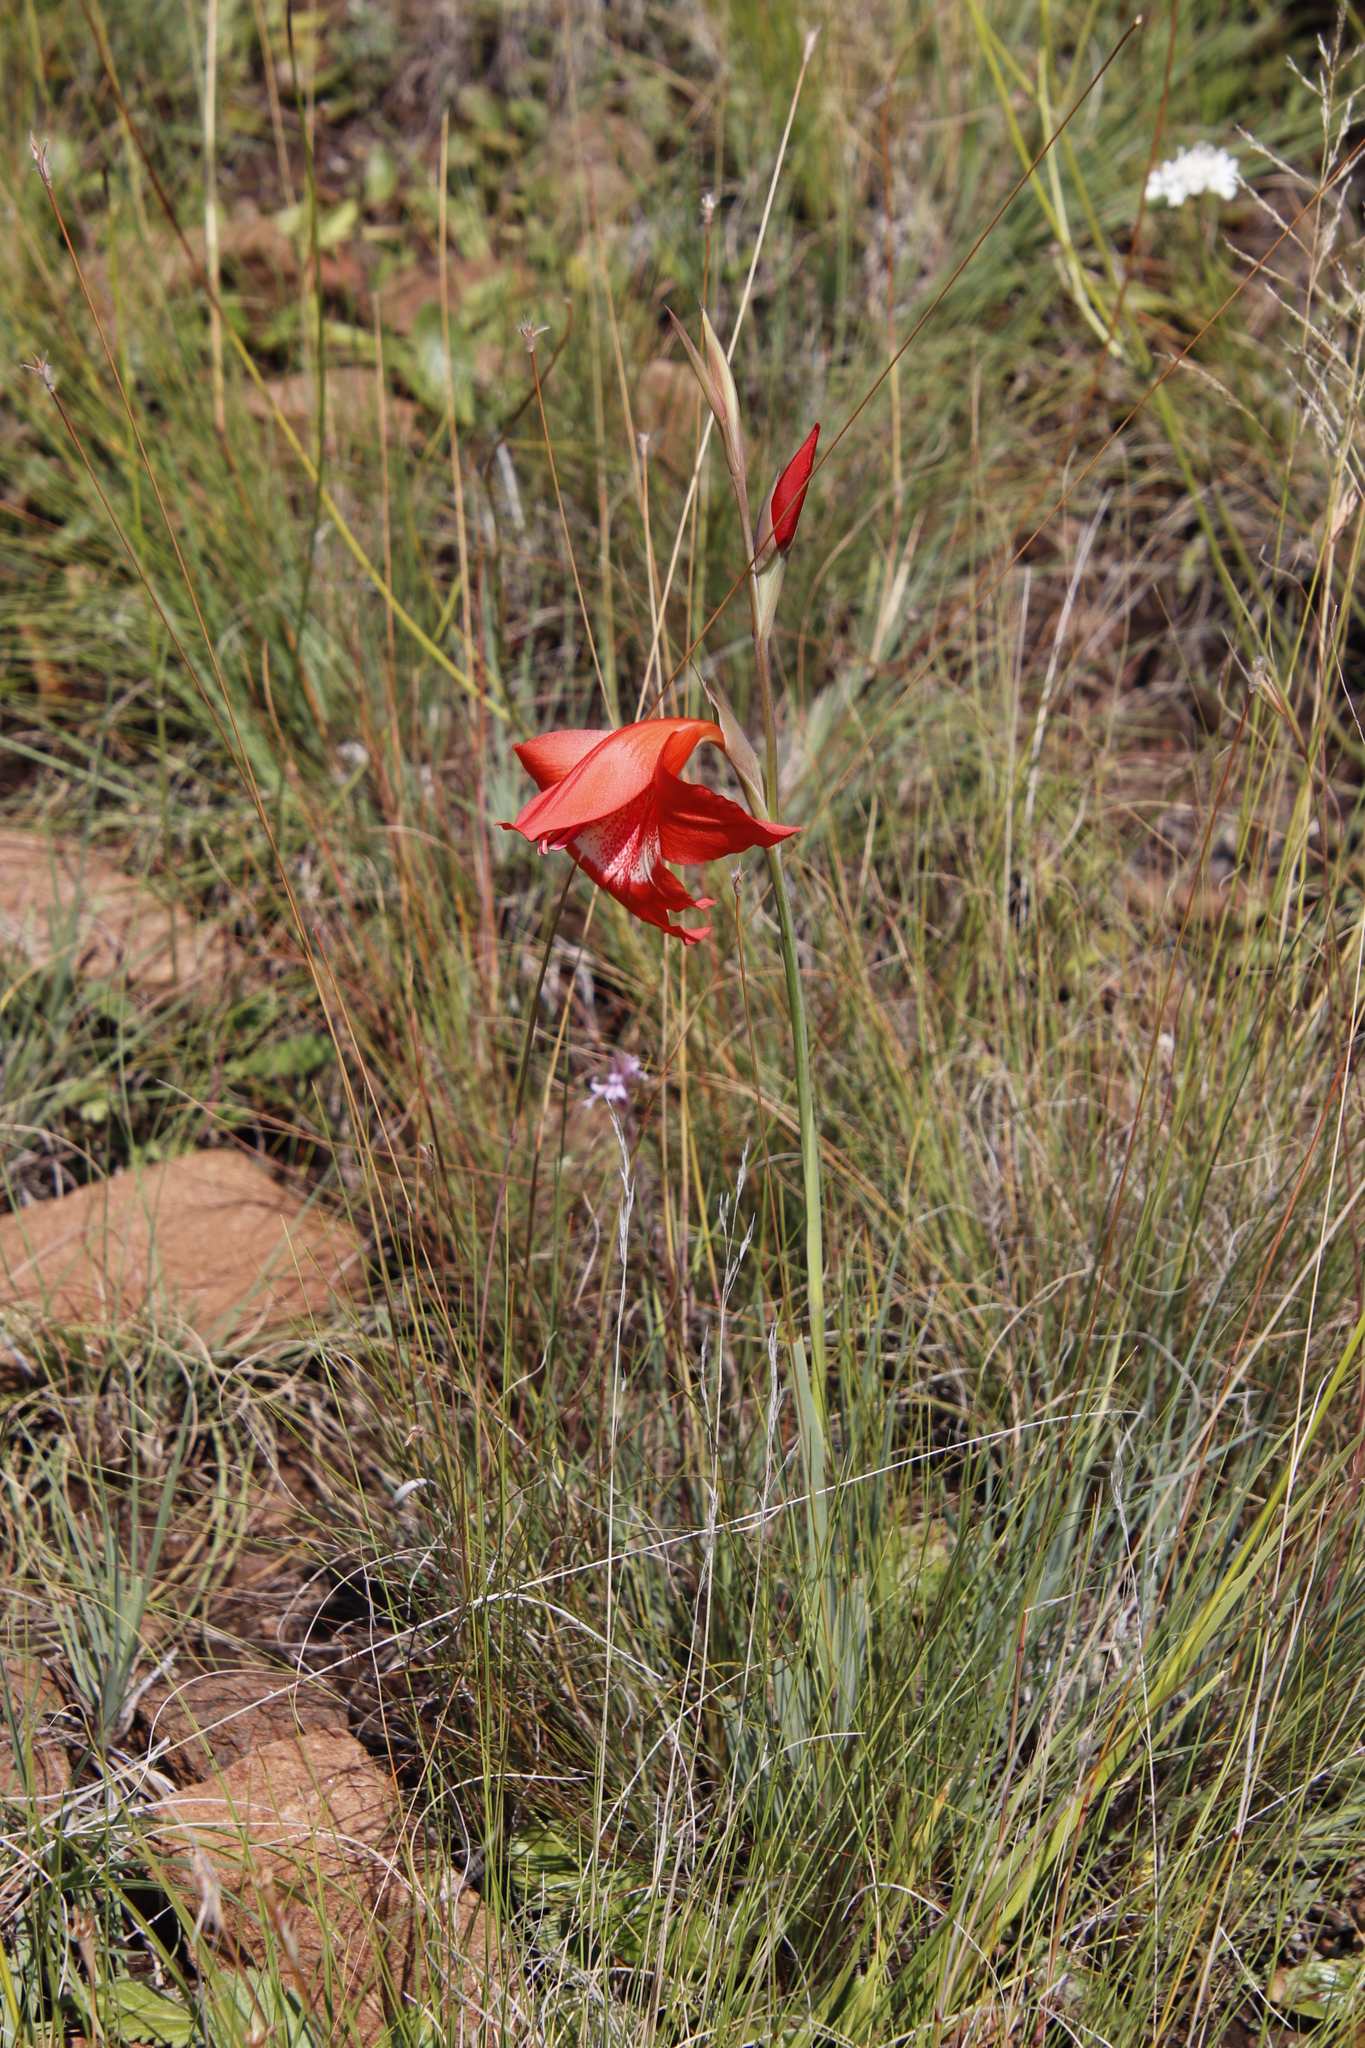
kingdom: Plantae
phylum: Tracheophyta
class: Liliopsida
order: Asparagales
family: Iridaceae
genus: Gladiolus
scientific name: Gladiolus saundersii
